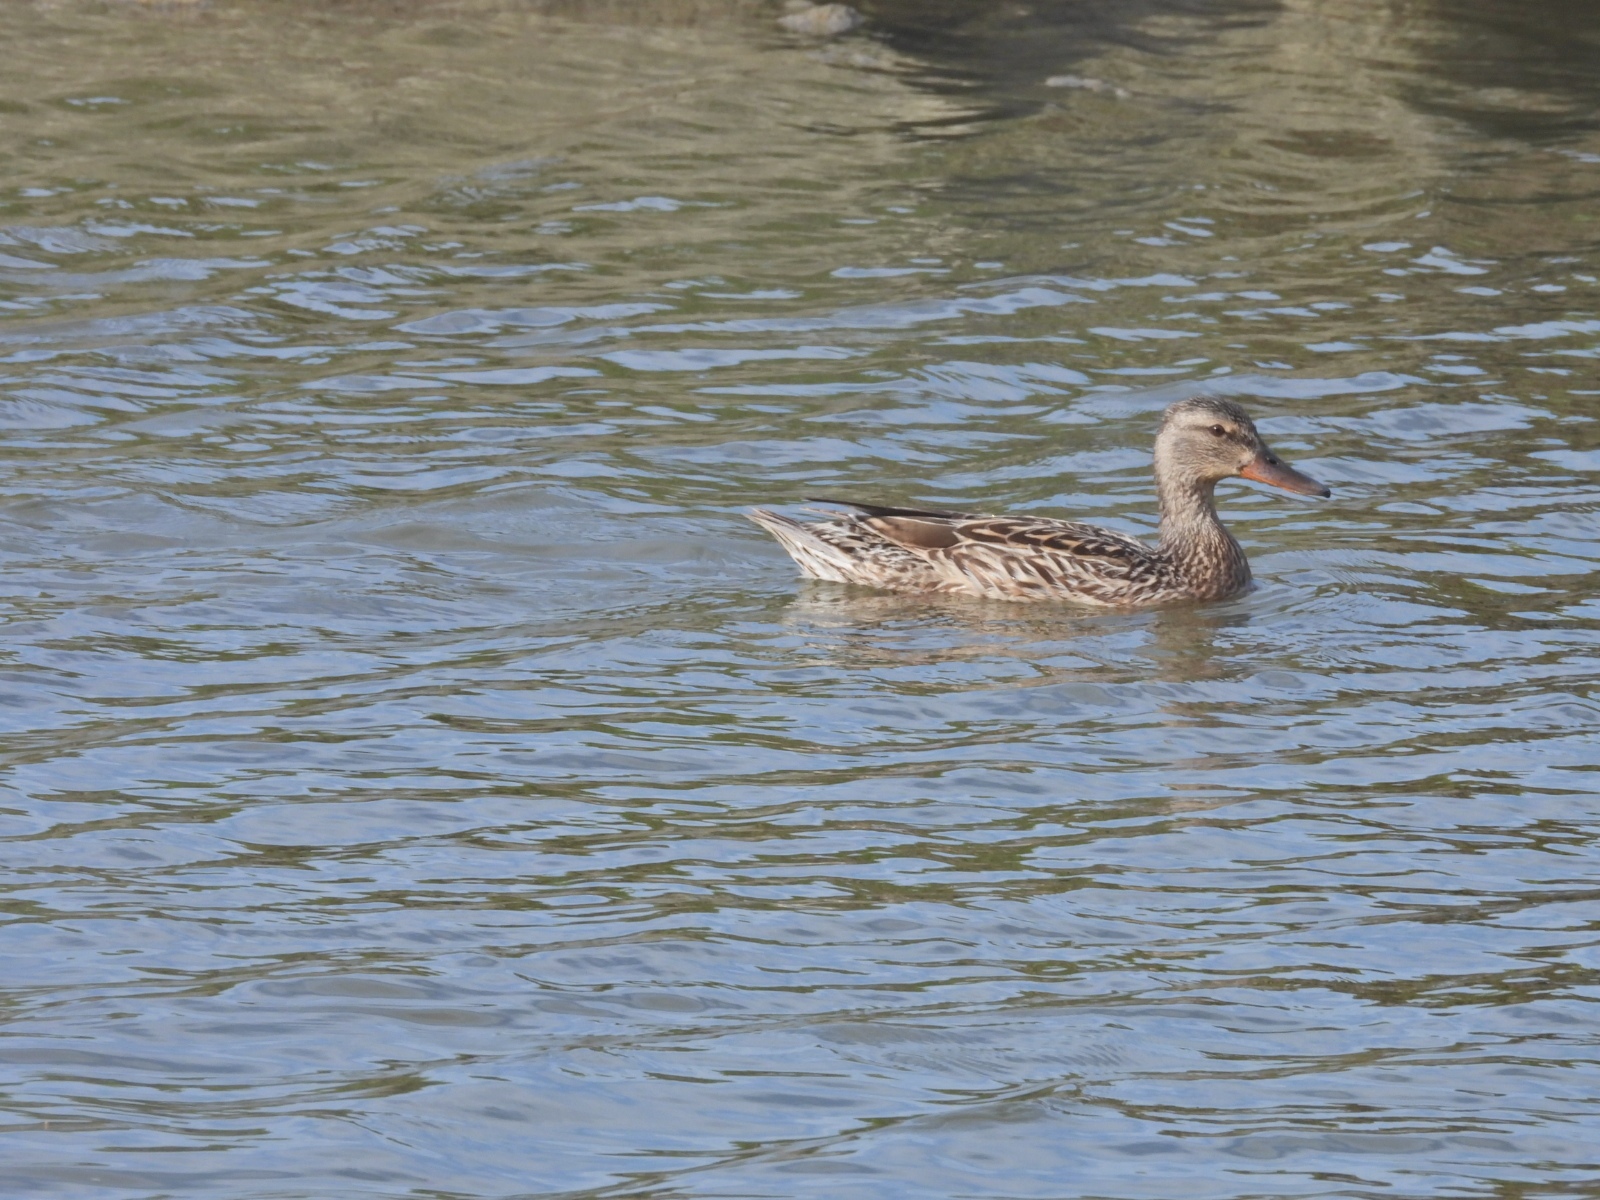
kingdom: Animalia
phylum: Chordata
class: Aves
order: Anseriformes
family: Anatidae
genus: Spatula
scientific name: Spatula clypeata
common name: Northern shoveler
